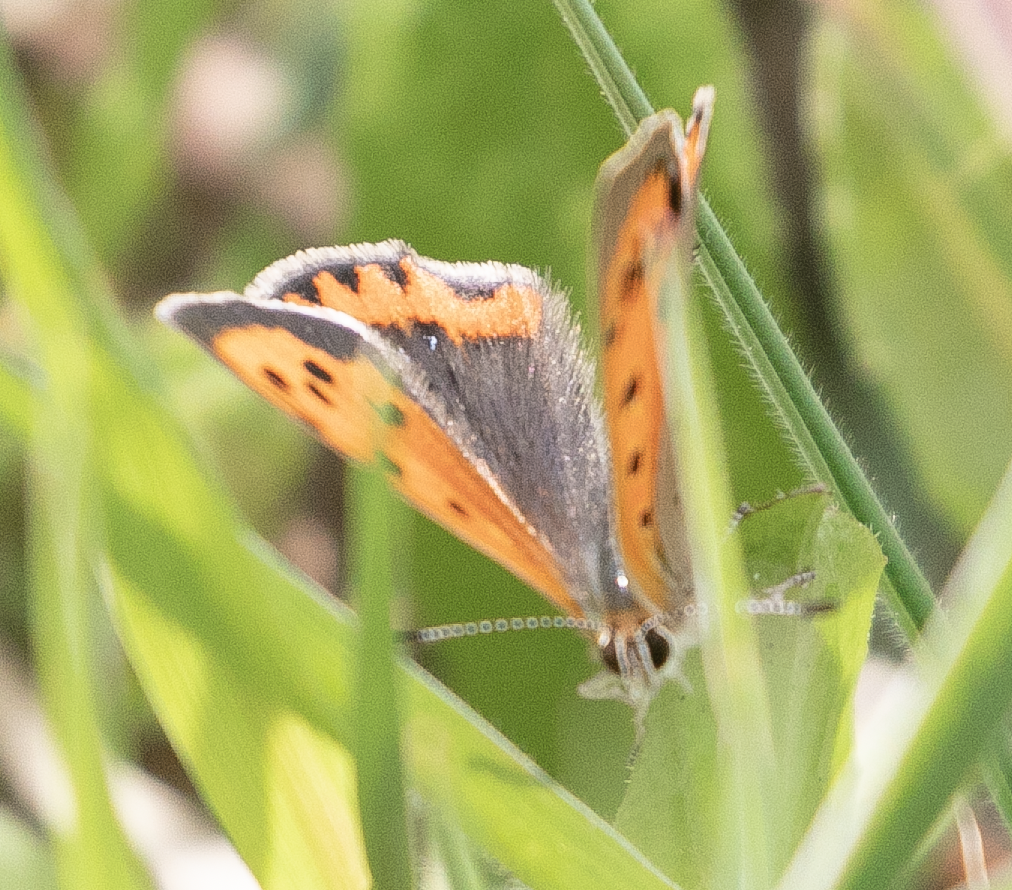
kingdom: Animalia
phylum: Arthropoda
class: Insecta
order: Lepidoptera
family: Lycaenidae
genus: Lycaena
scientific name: Lycaena phlaeas
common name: Small copper
